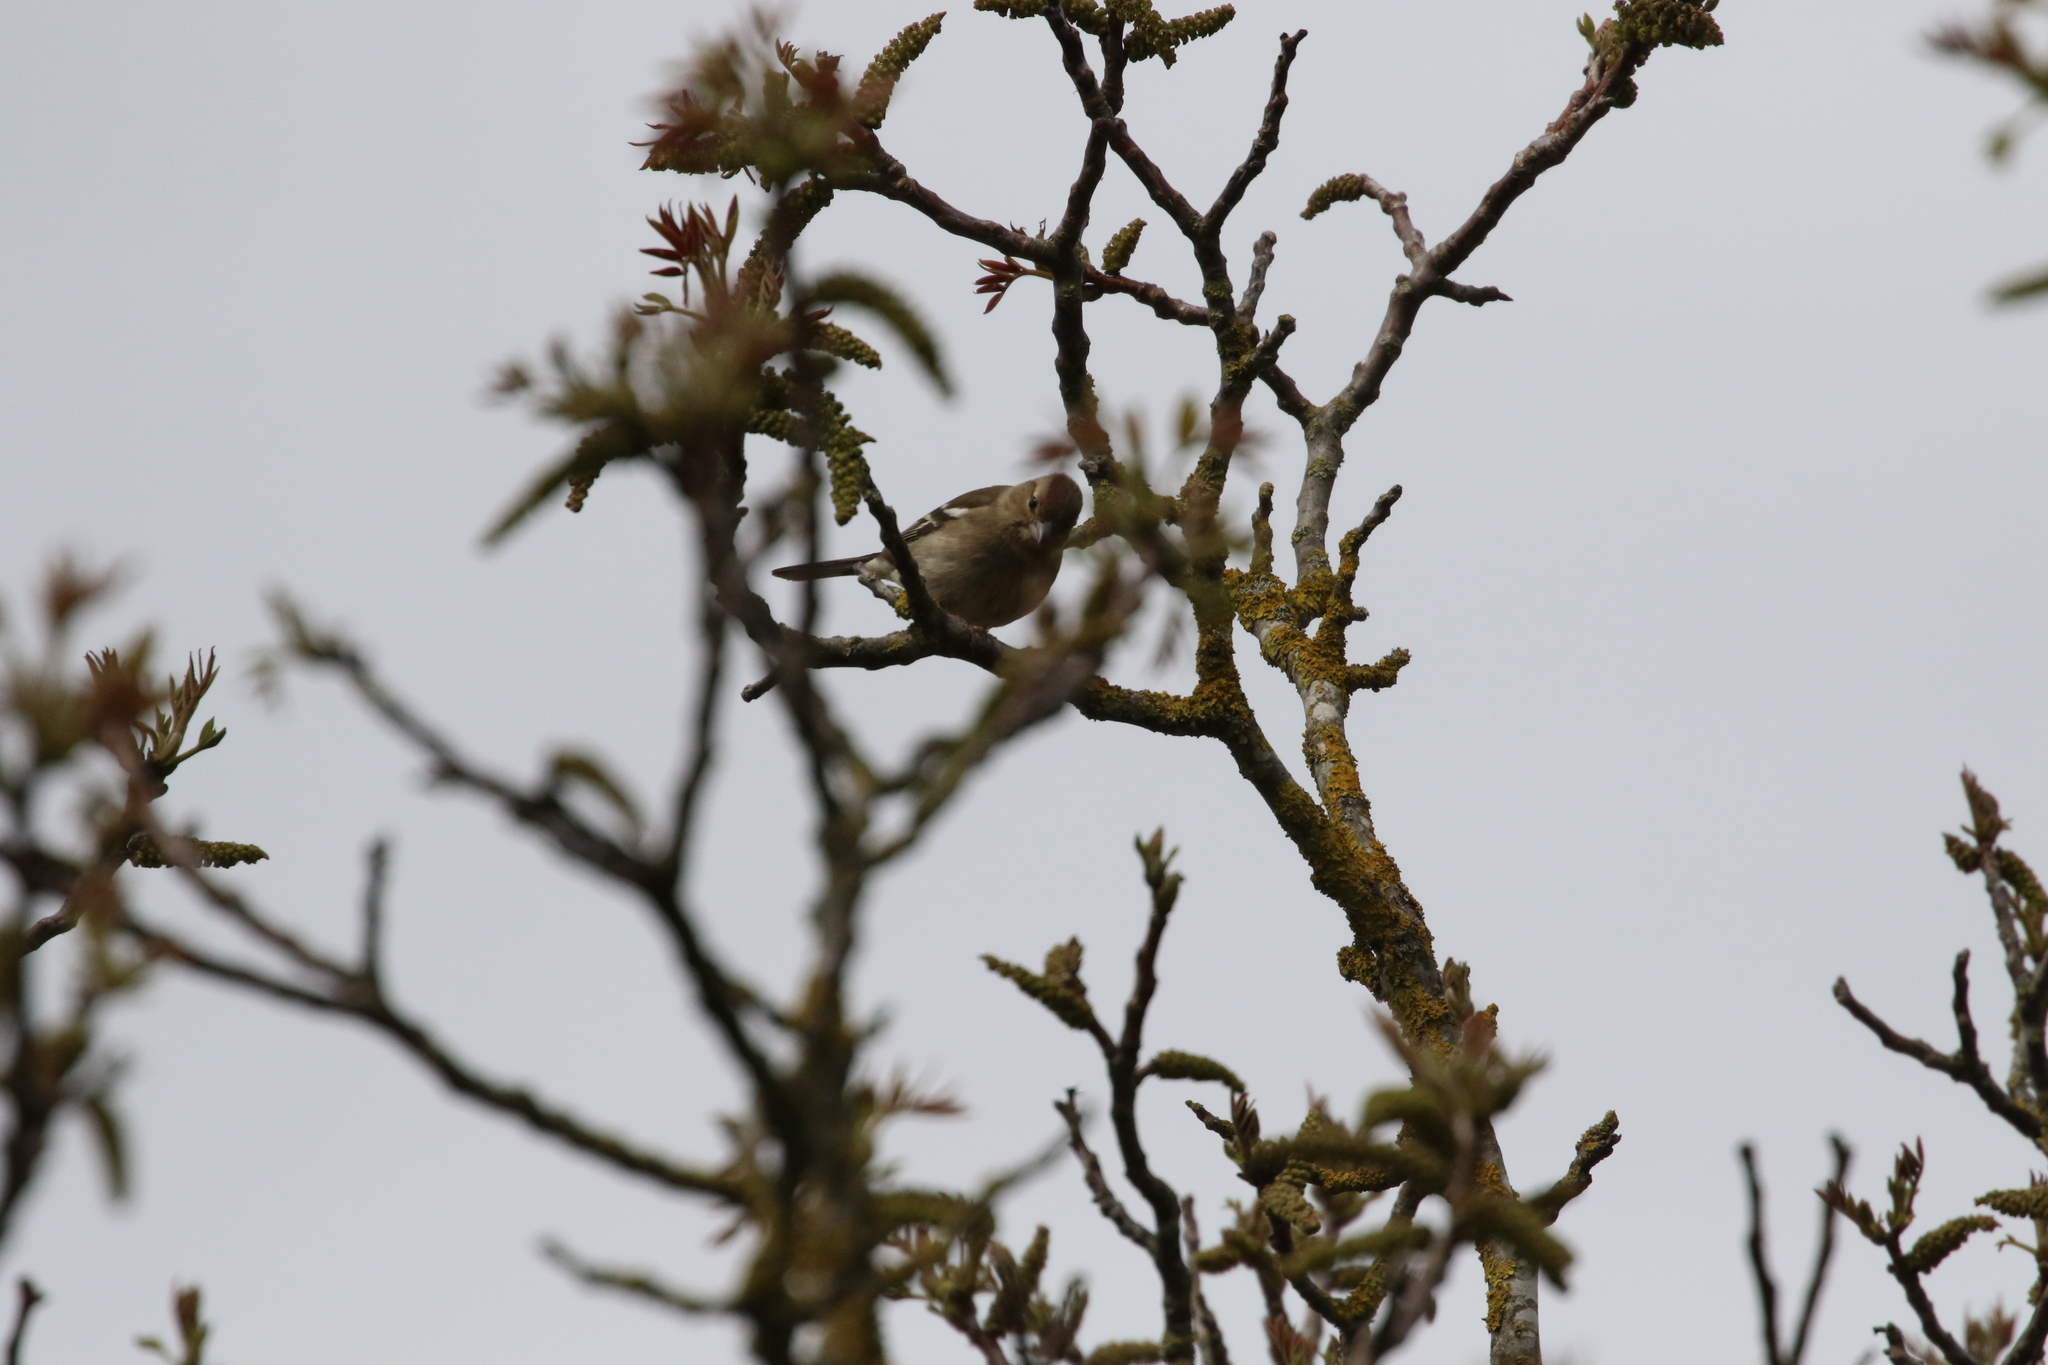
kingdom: Animalia
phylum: Chordata
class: Aves
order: Passeriformes
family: Fringillidae
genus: Fringilla
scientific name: Fringilla coelebs
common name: Common chaffinch
